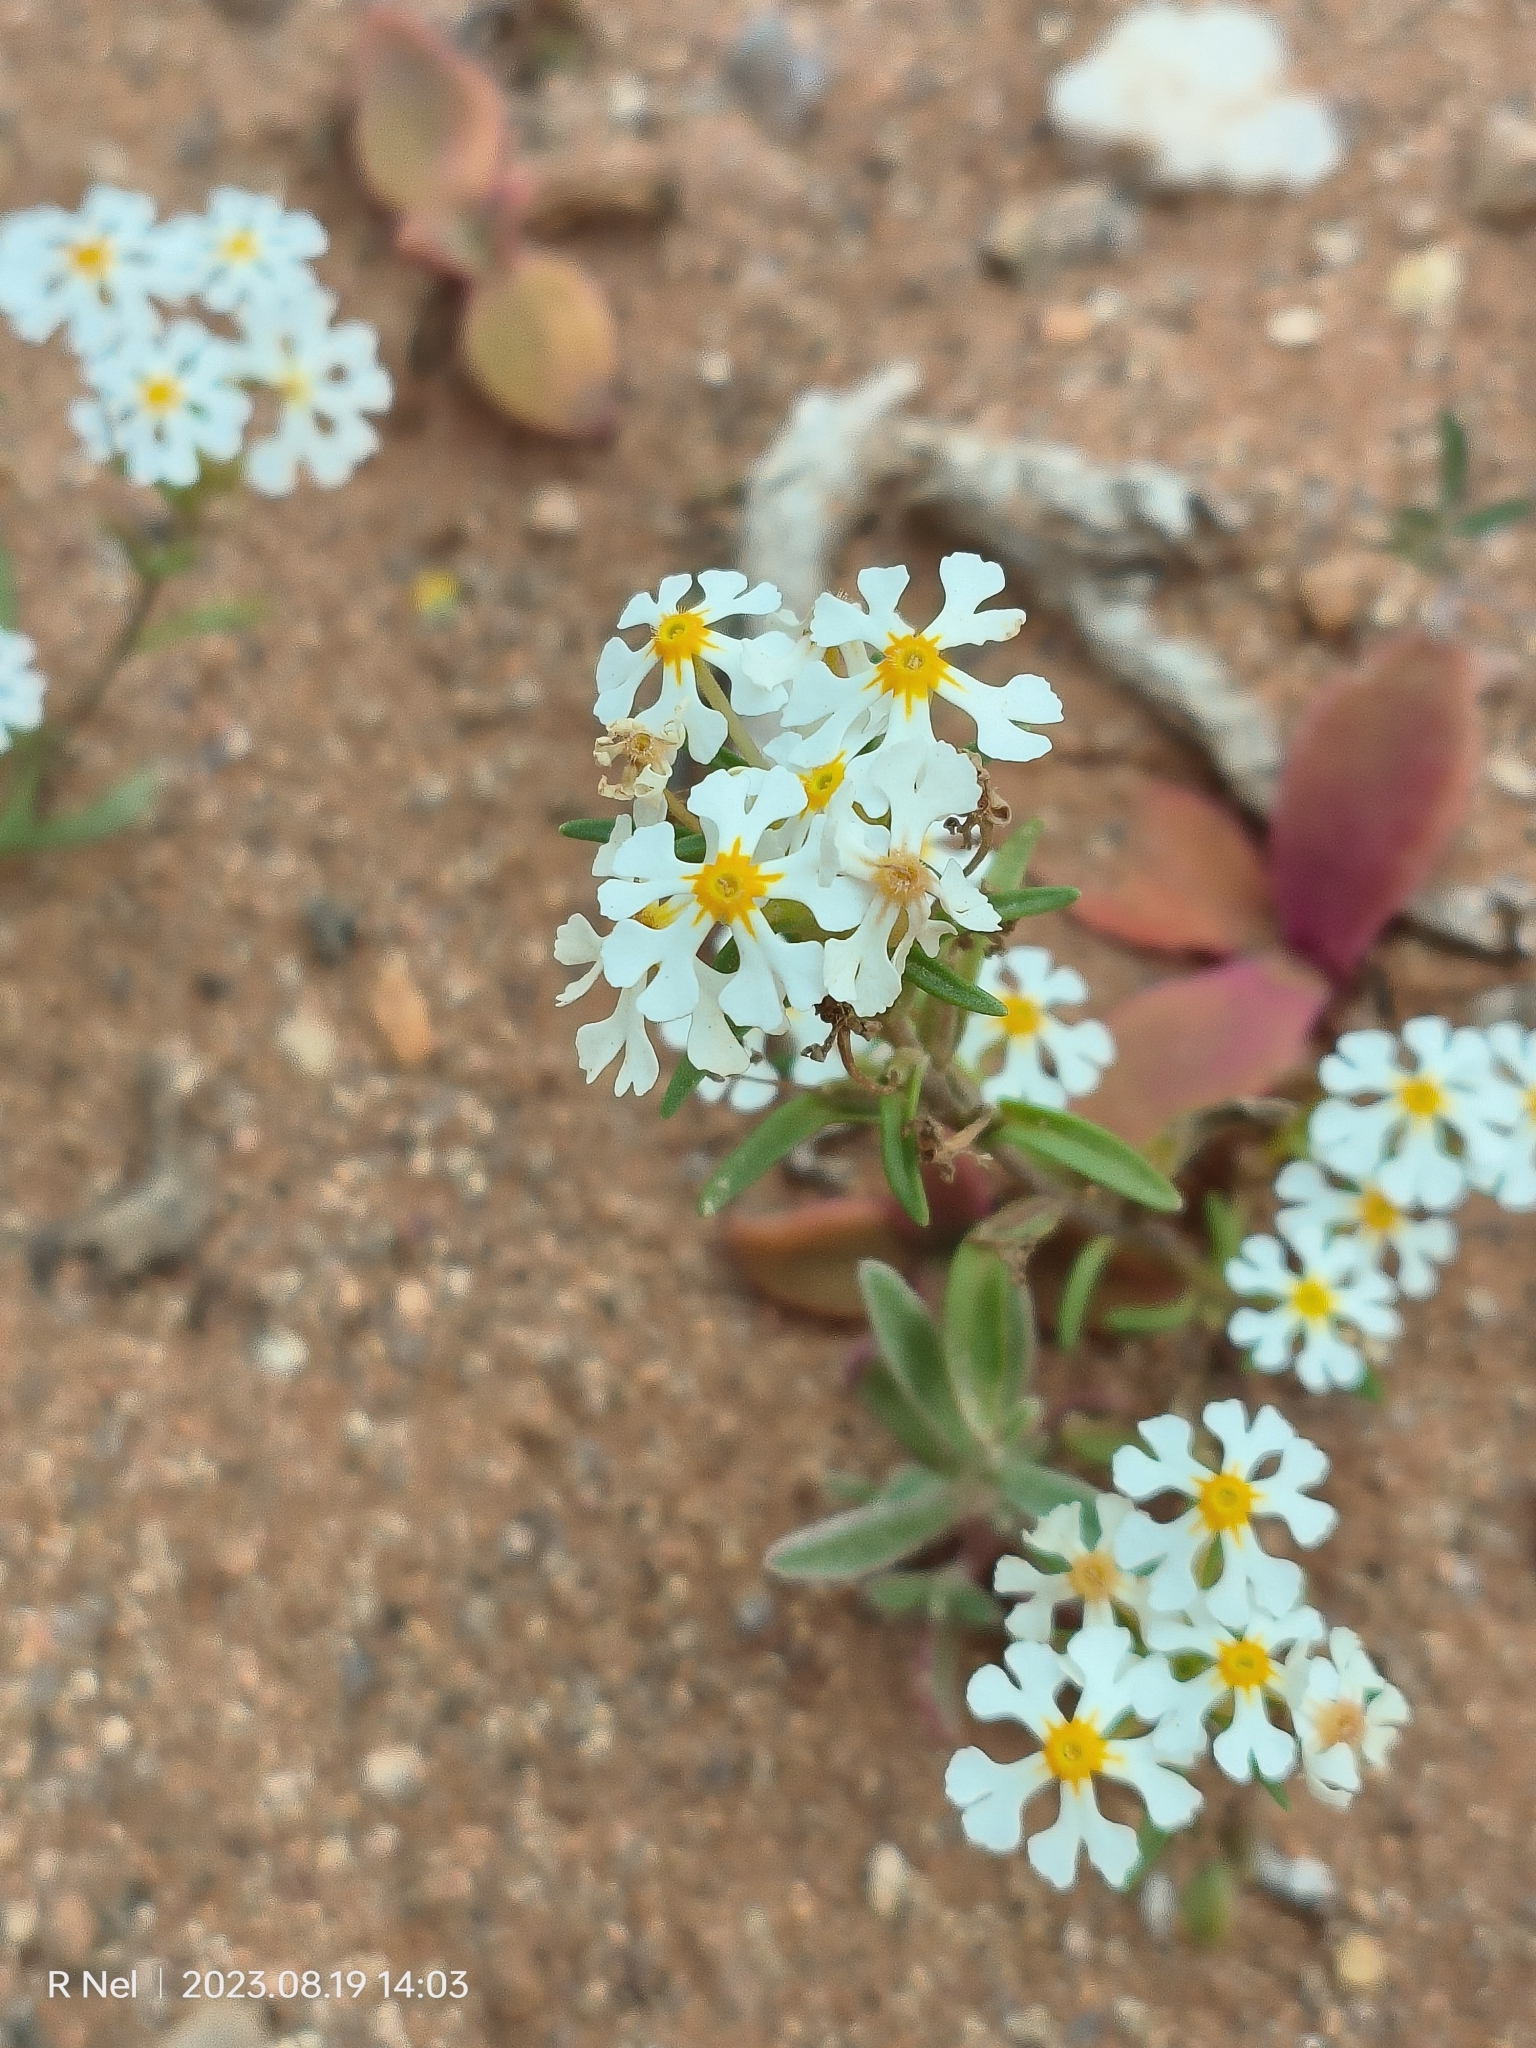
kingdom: Plantae
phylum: Tracheophyta
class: Magnoliopsida
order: Lamiales
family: Scrophulariaceae
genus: Zaluzianskya
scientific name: Zaluzianskya affinis
